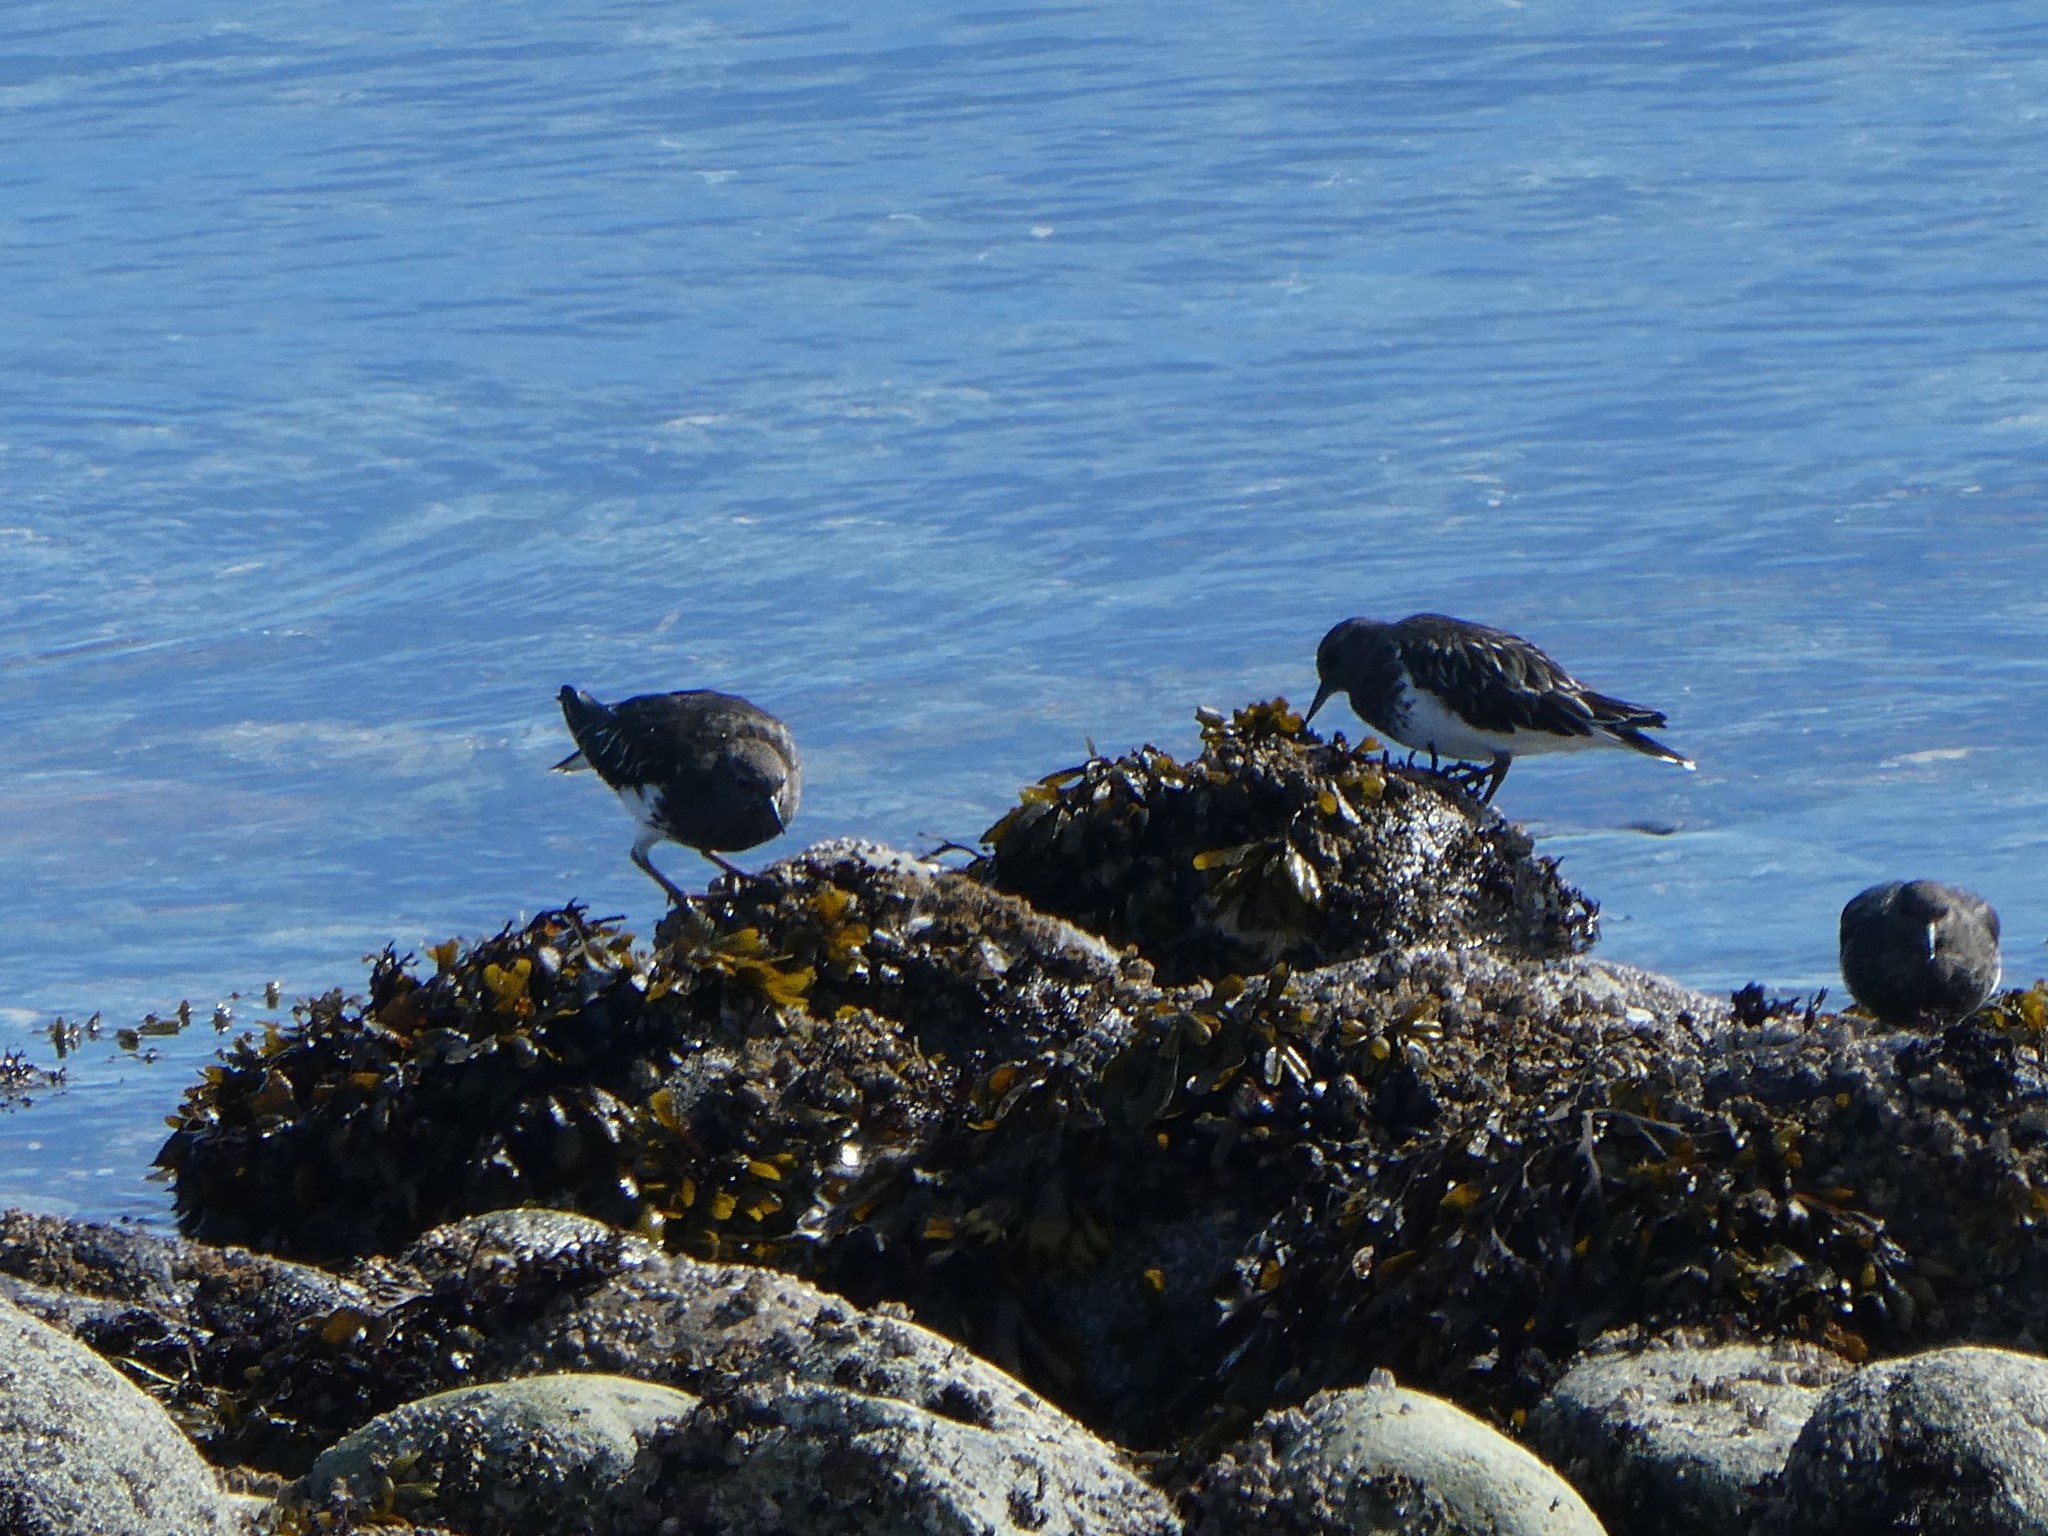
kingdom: Animalia
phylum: Chordata
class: Aves
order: Charadriiformes
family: Scolopacidae
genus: Arenaria
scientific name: Arenaria melanocephala
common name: Black turnstone
